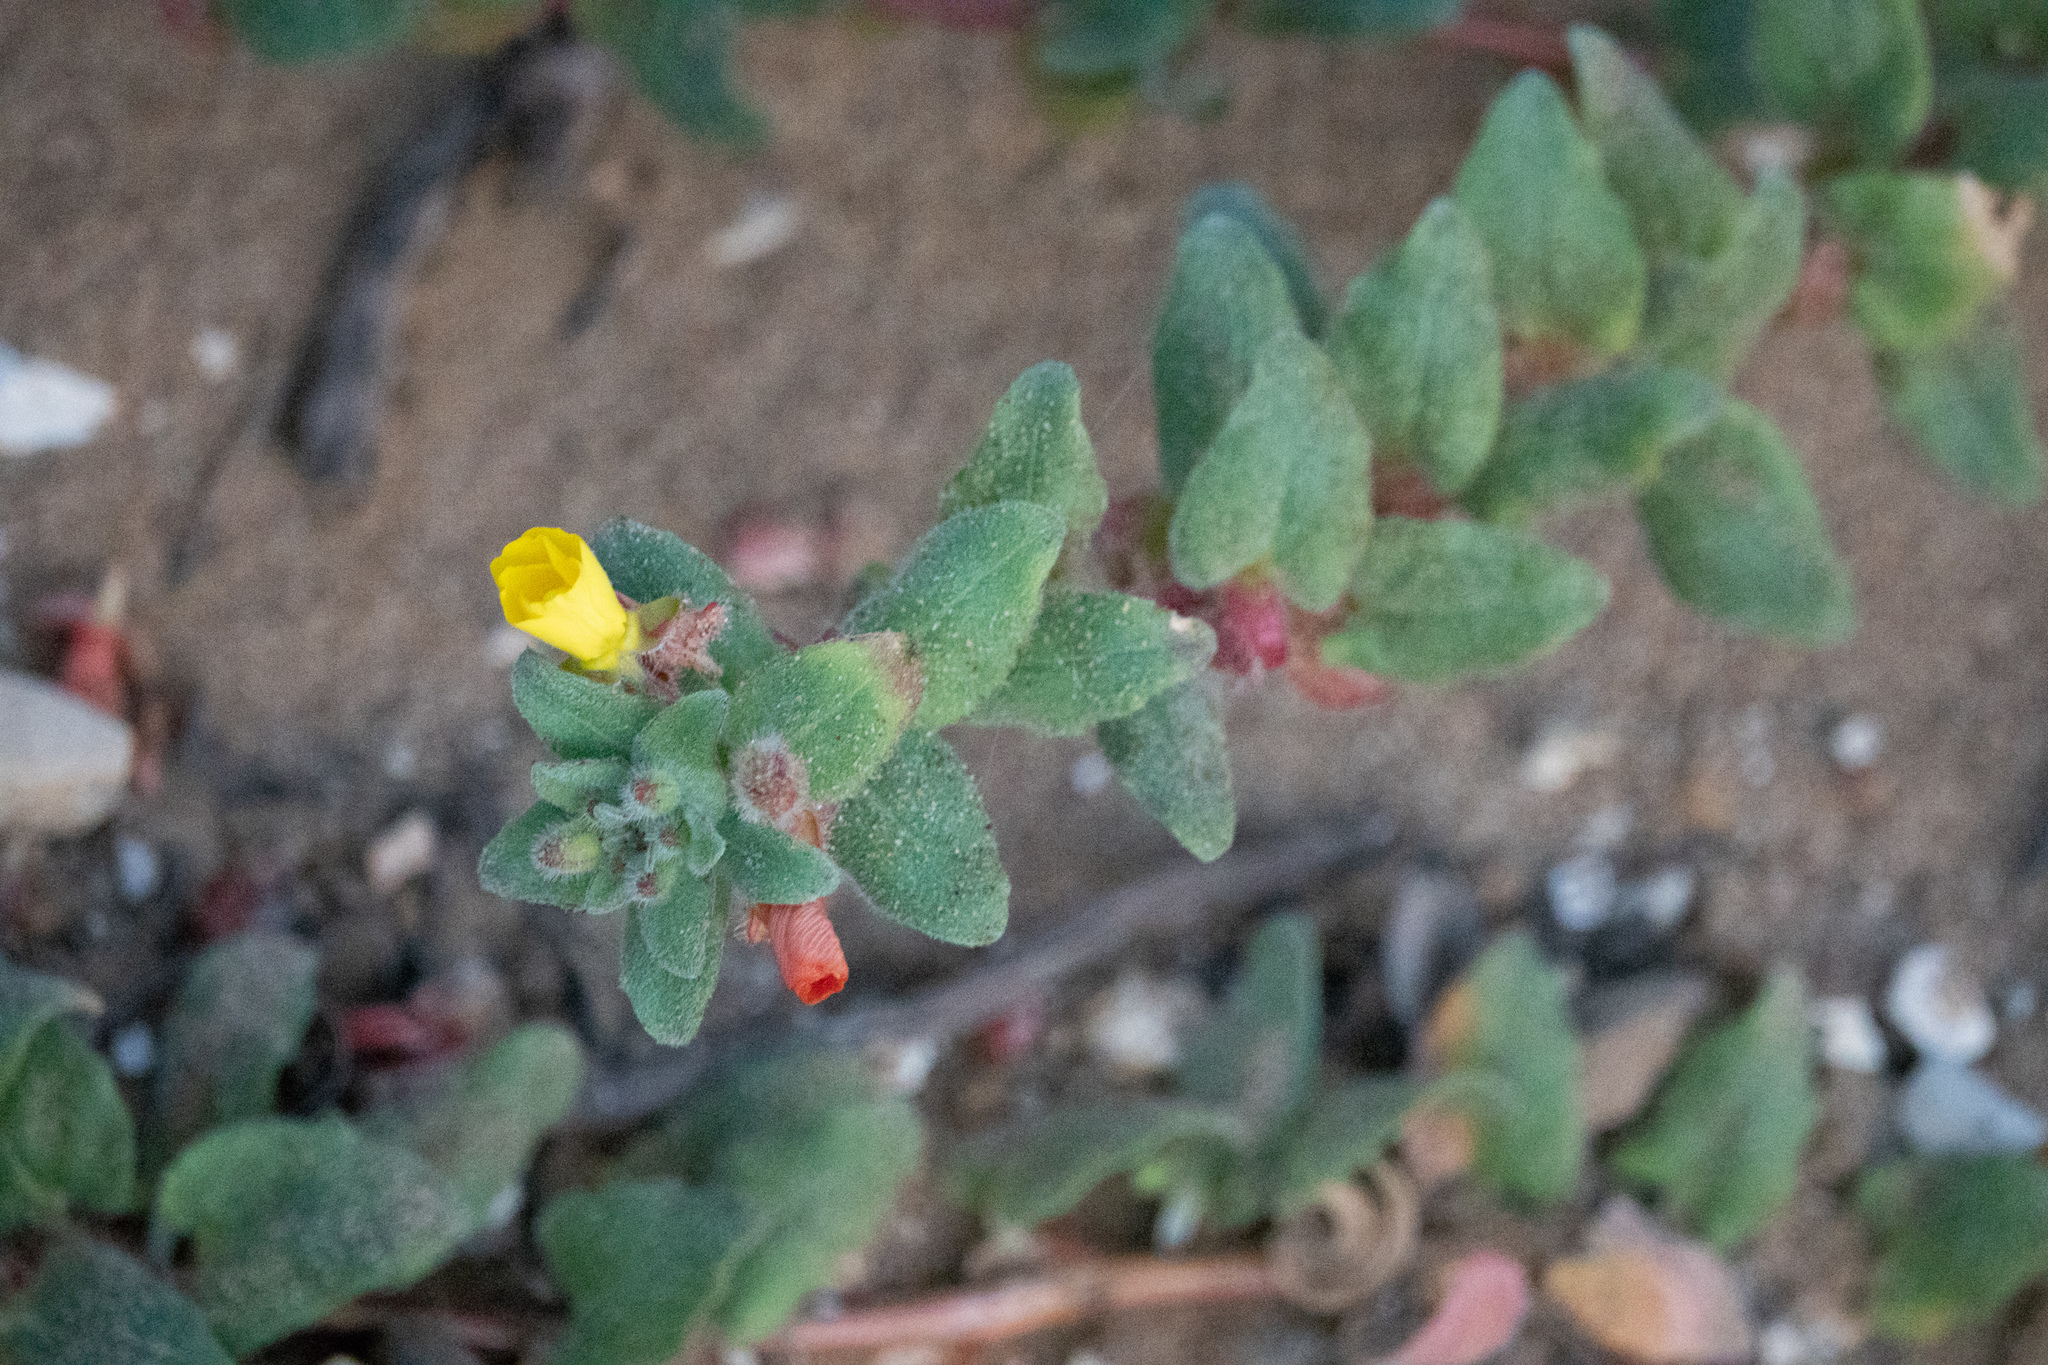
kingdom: Plantae
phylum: Tracheophyta
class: Magnoliopsida
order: Myrtales
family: Onagraceae
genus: Camissoniopsis
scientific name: Camissoniopsis cheiranthifolia
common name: Beach suncup
